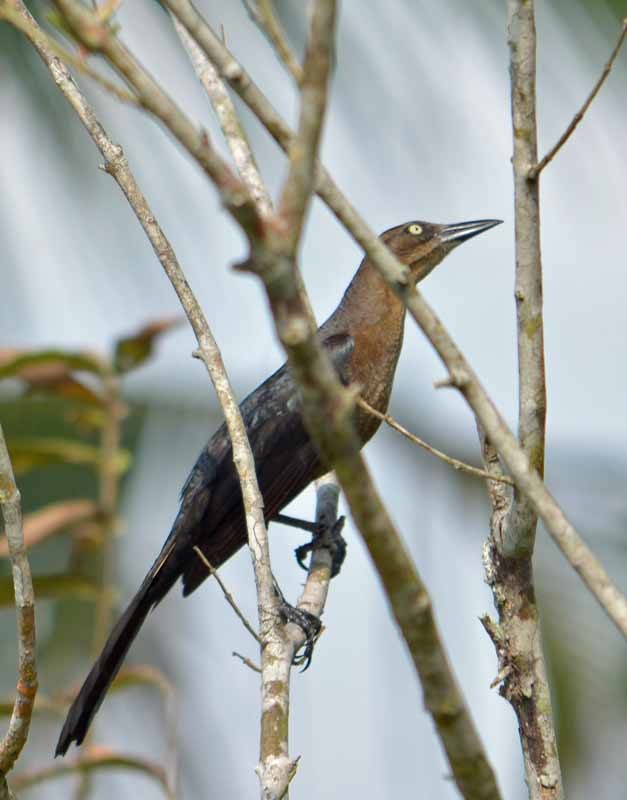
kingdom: Animalia
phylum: Chordata
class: Aves
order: Passeriformes
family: Icteridae
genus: Quiscalus
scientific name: Quiscalus mexicanus
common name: Great-tailed grackle
